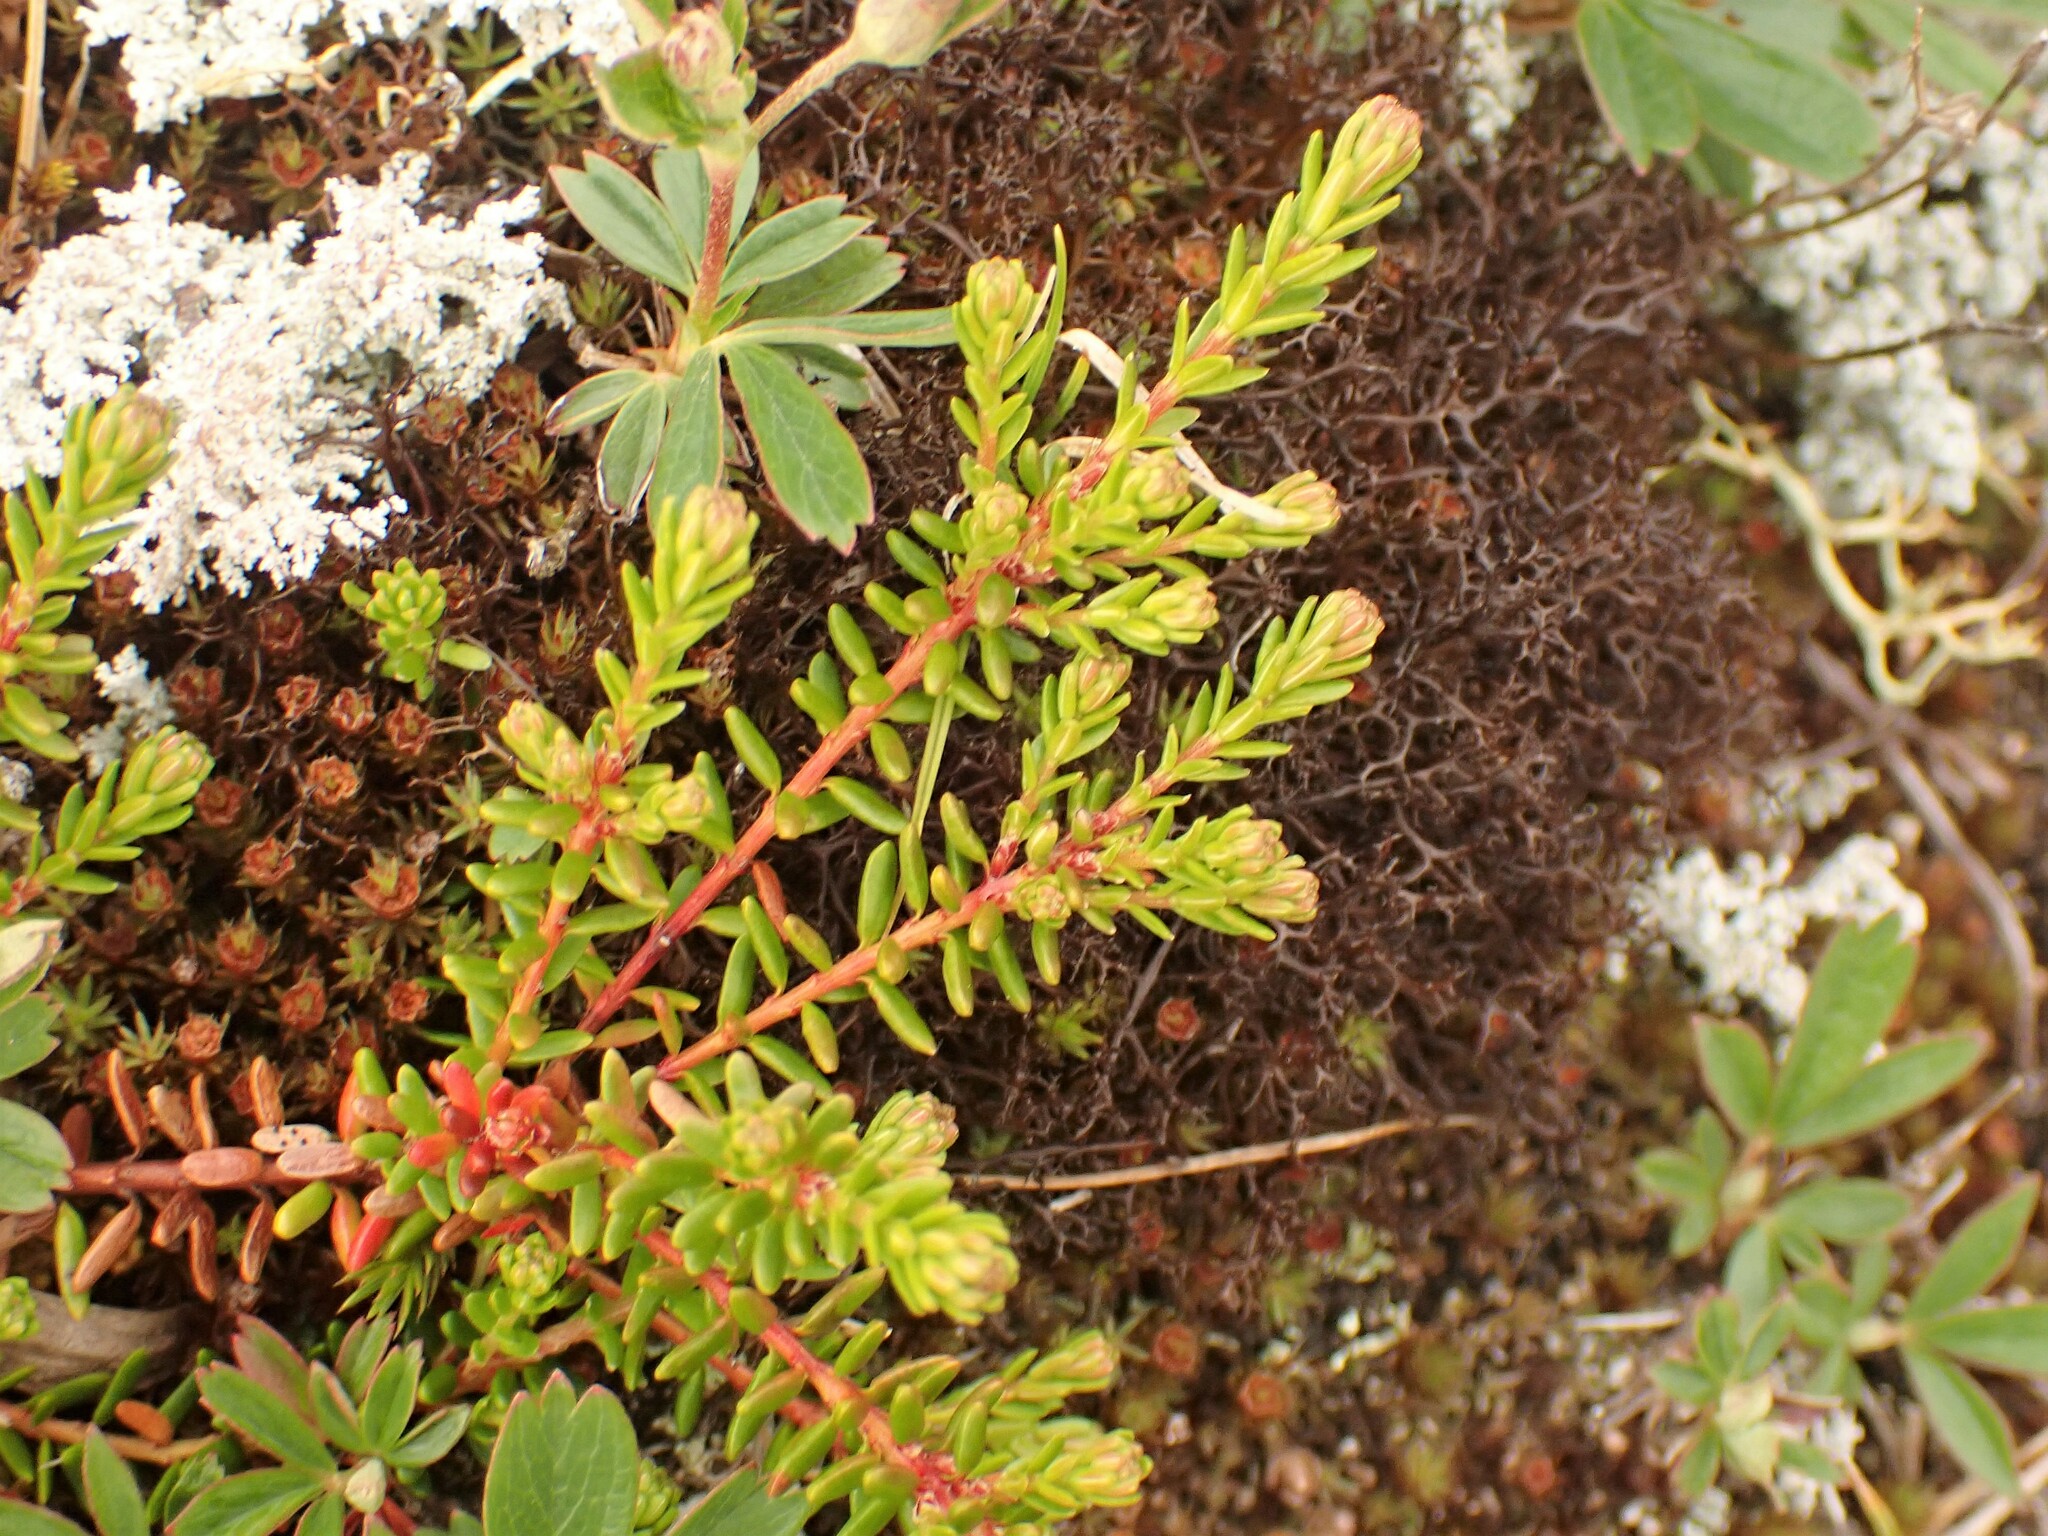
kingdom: Plantae
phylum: Tracheophyta
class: Magnoliopsida
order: Ericales
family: Ericaceae
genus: Empetrum
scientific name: Empetrum nigrum
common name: Black crowberry
